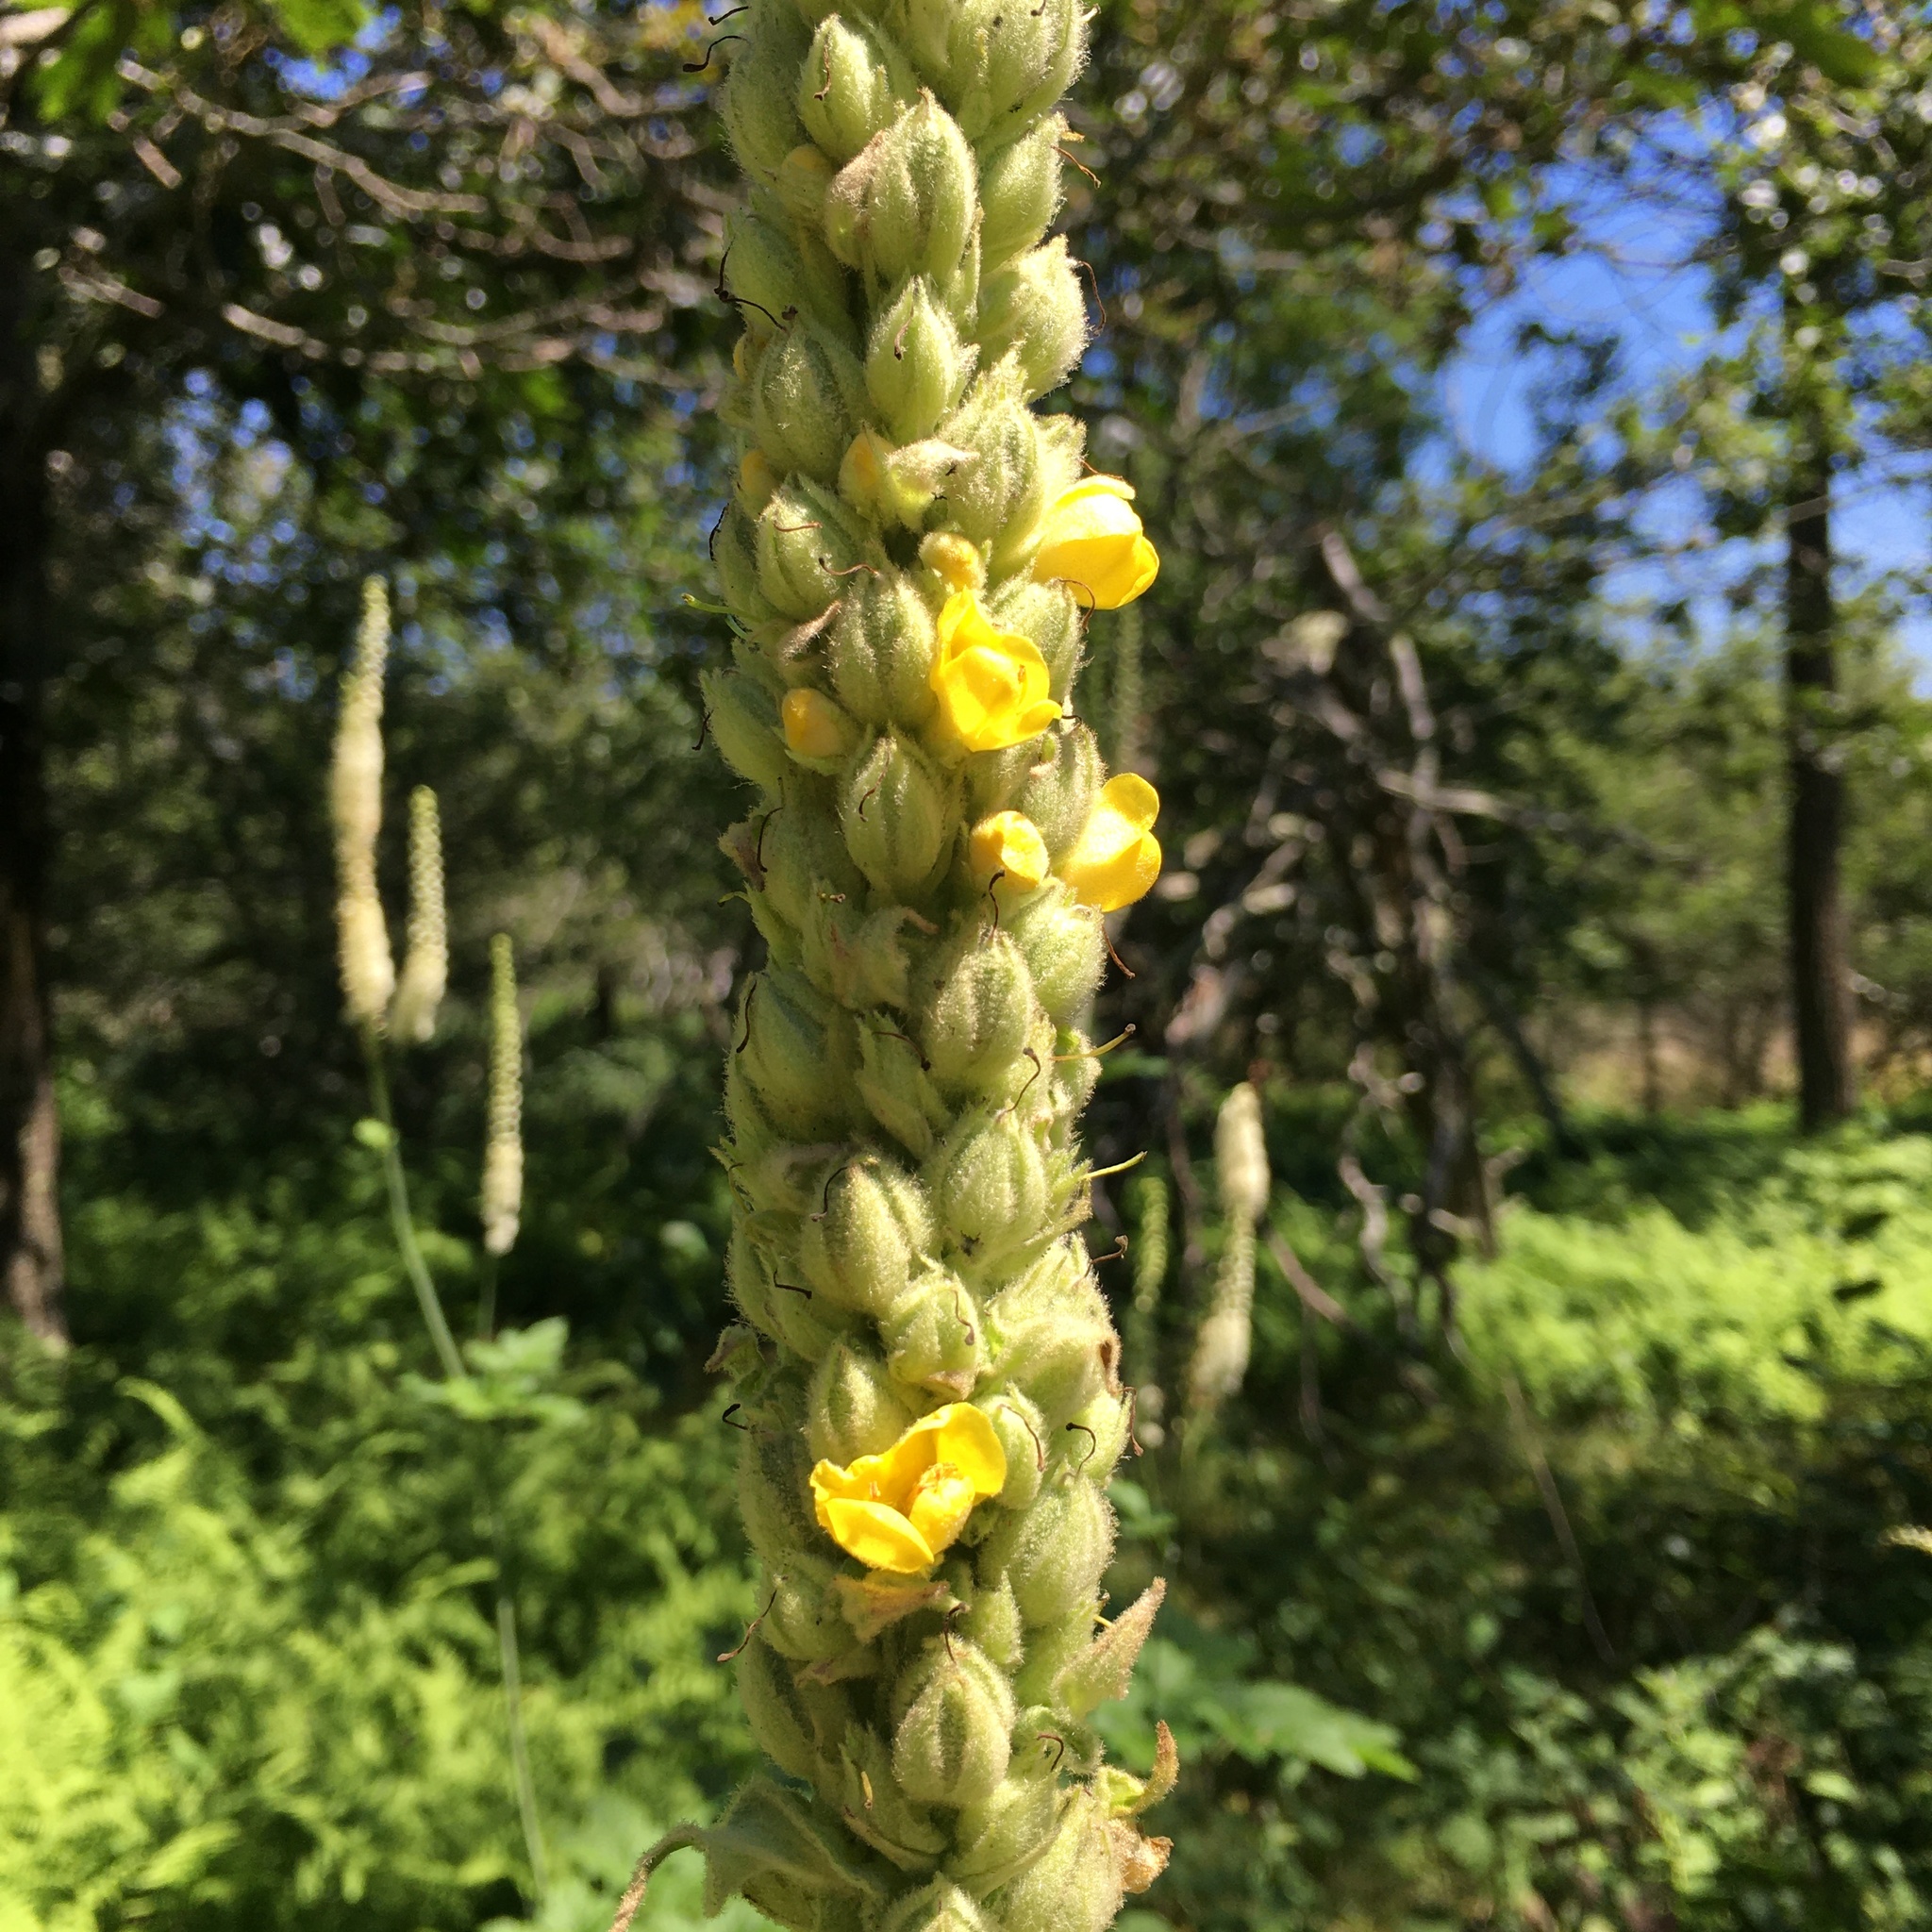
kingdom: Plantae
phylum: Tracheophyta
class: Magnoliopsida
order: Lamiales
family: Scrophulariaceae
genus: Verbascum
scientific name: Verbascum thapsus
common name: Common mullein
